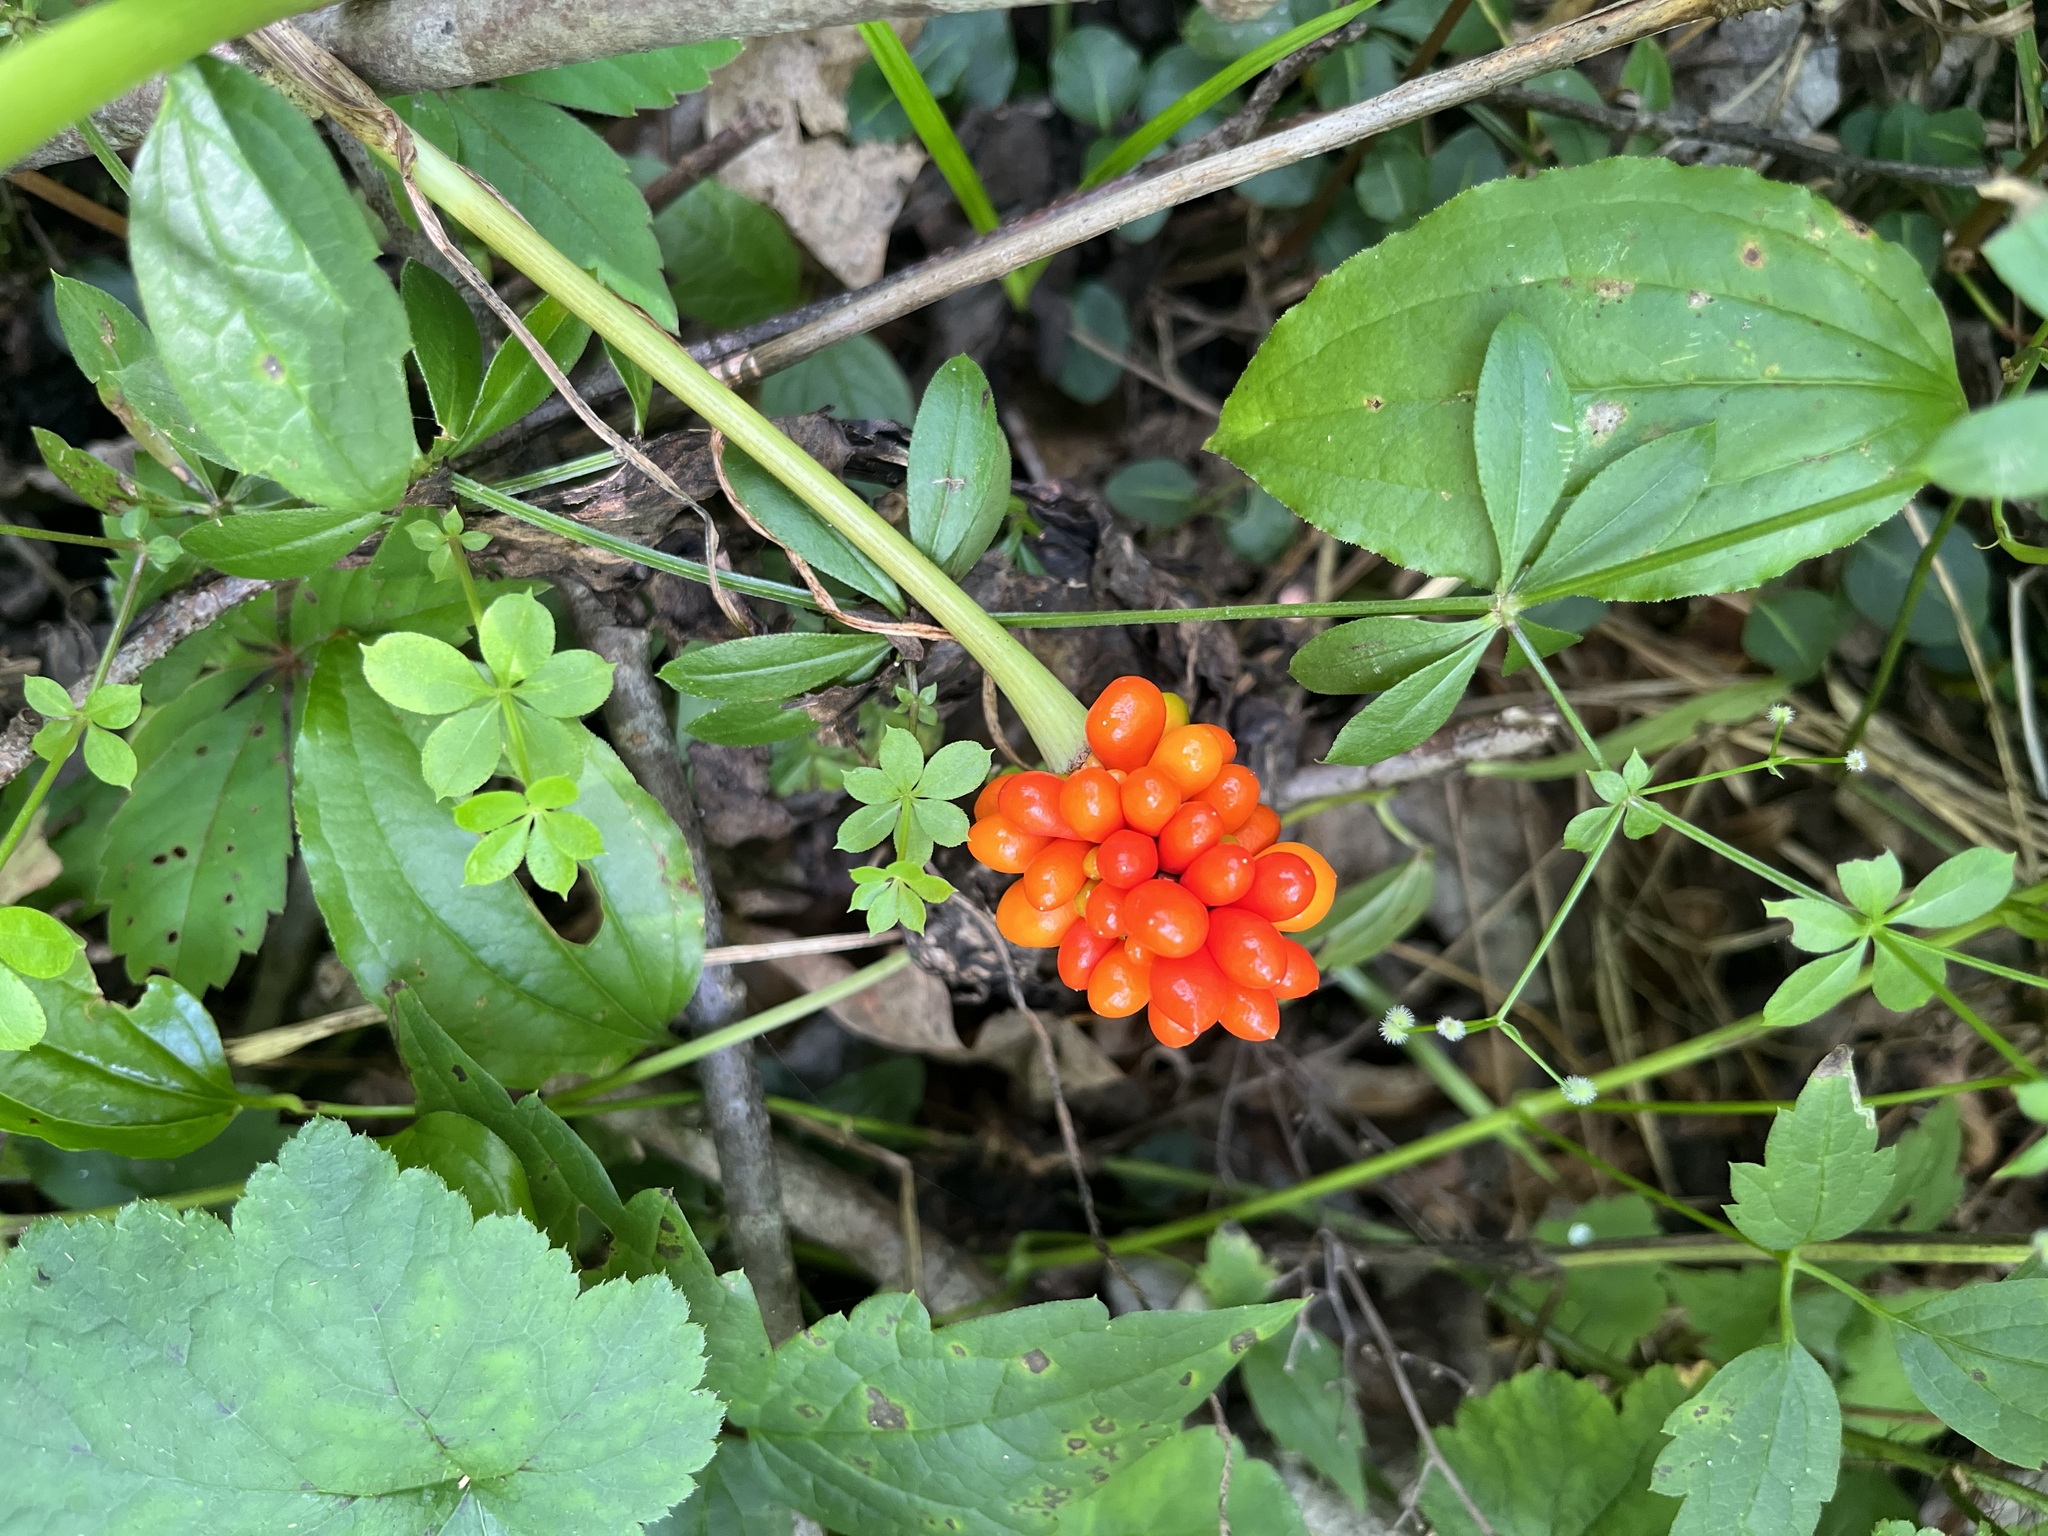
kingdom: Plantae
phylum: Tracheophyta
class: Liliopsida
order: Alismatales
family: Araceae
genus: Arisaema
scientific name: Arisaema triphyllum
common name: Jack-in-the-pulpit
